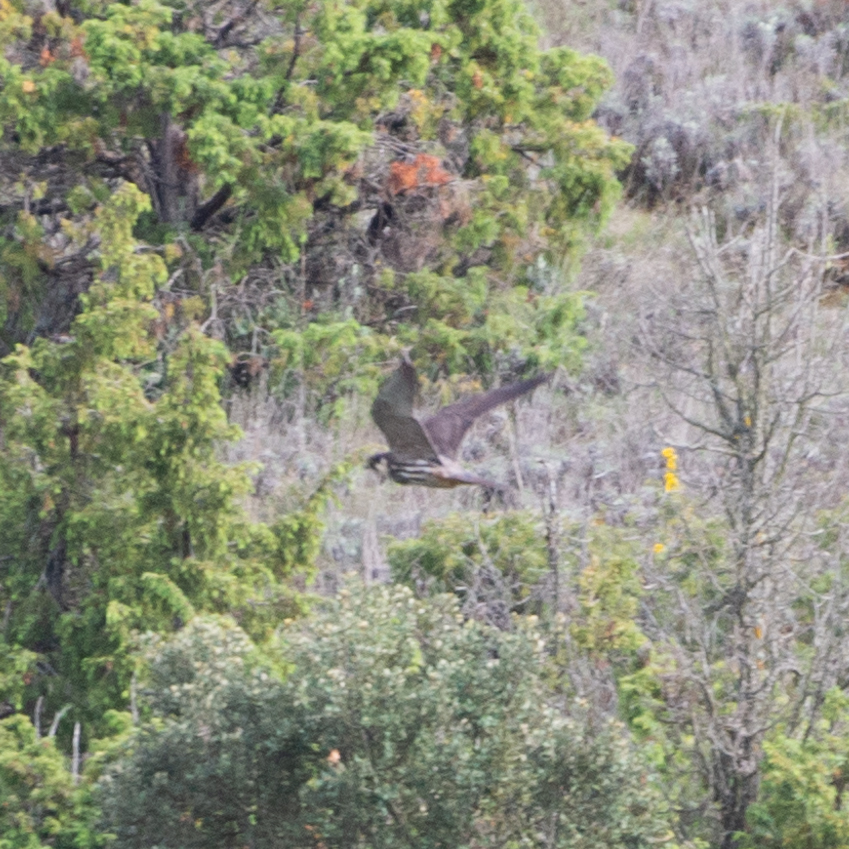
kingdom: Animalia
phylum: Chordata
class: Aves
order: Falconiformes
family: Falconidae
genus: Falco
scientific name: Falco subbuteo
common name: Eurasian hobby
